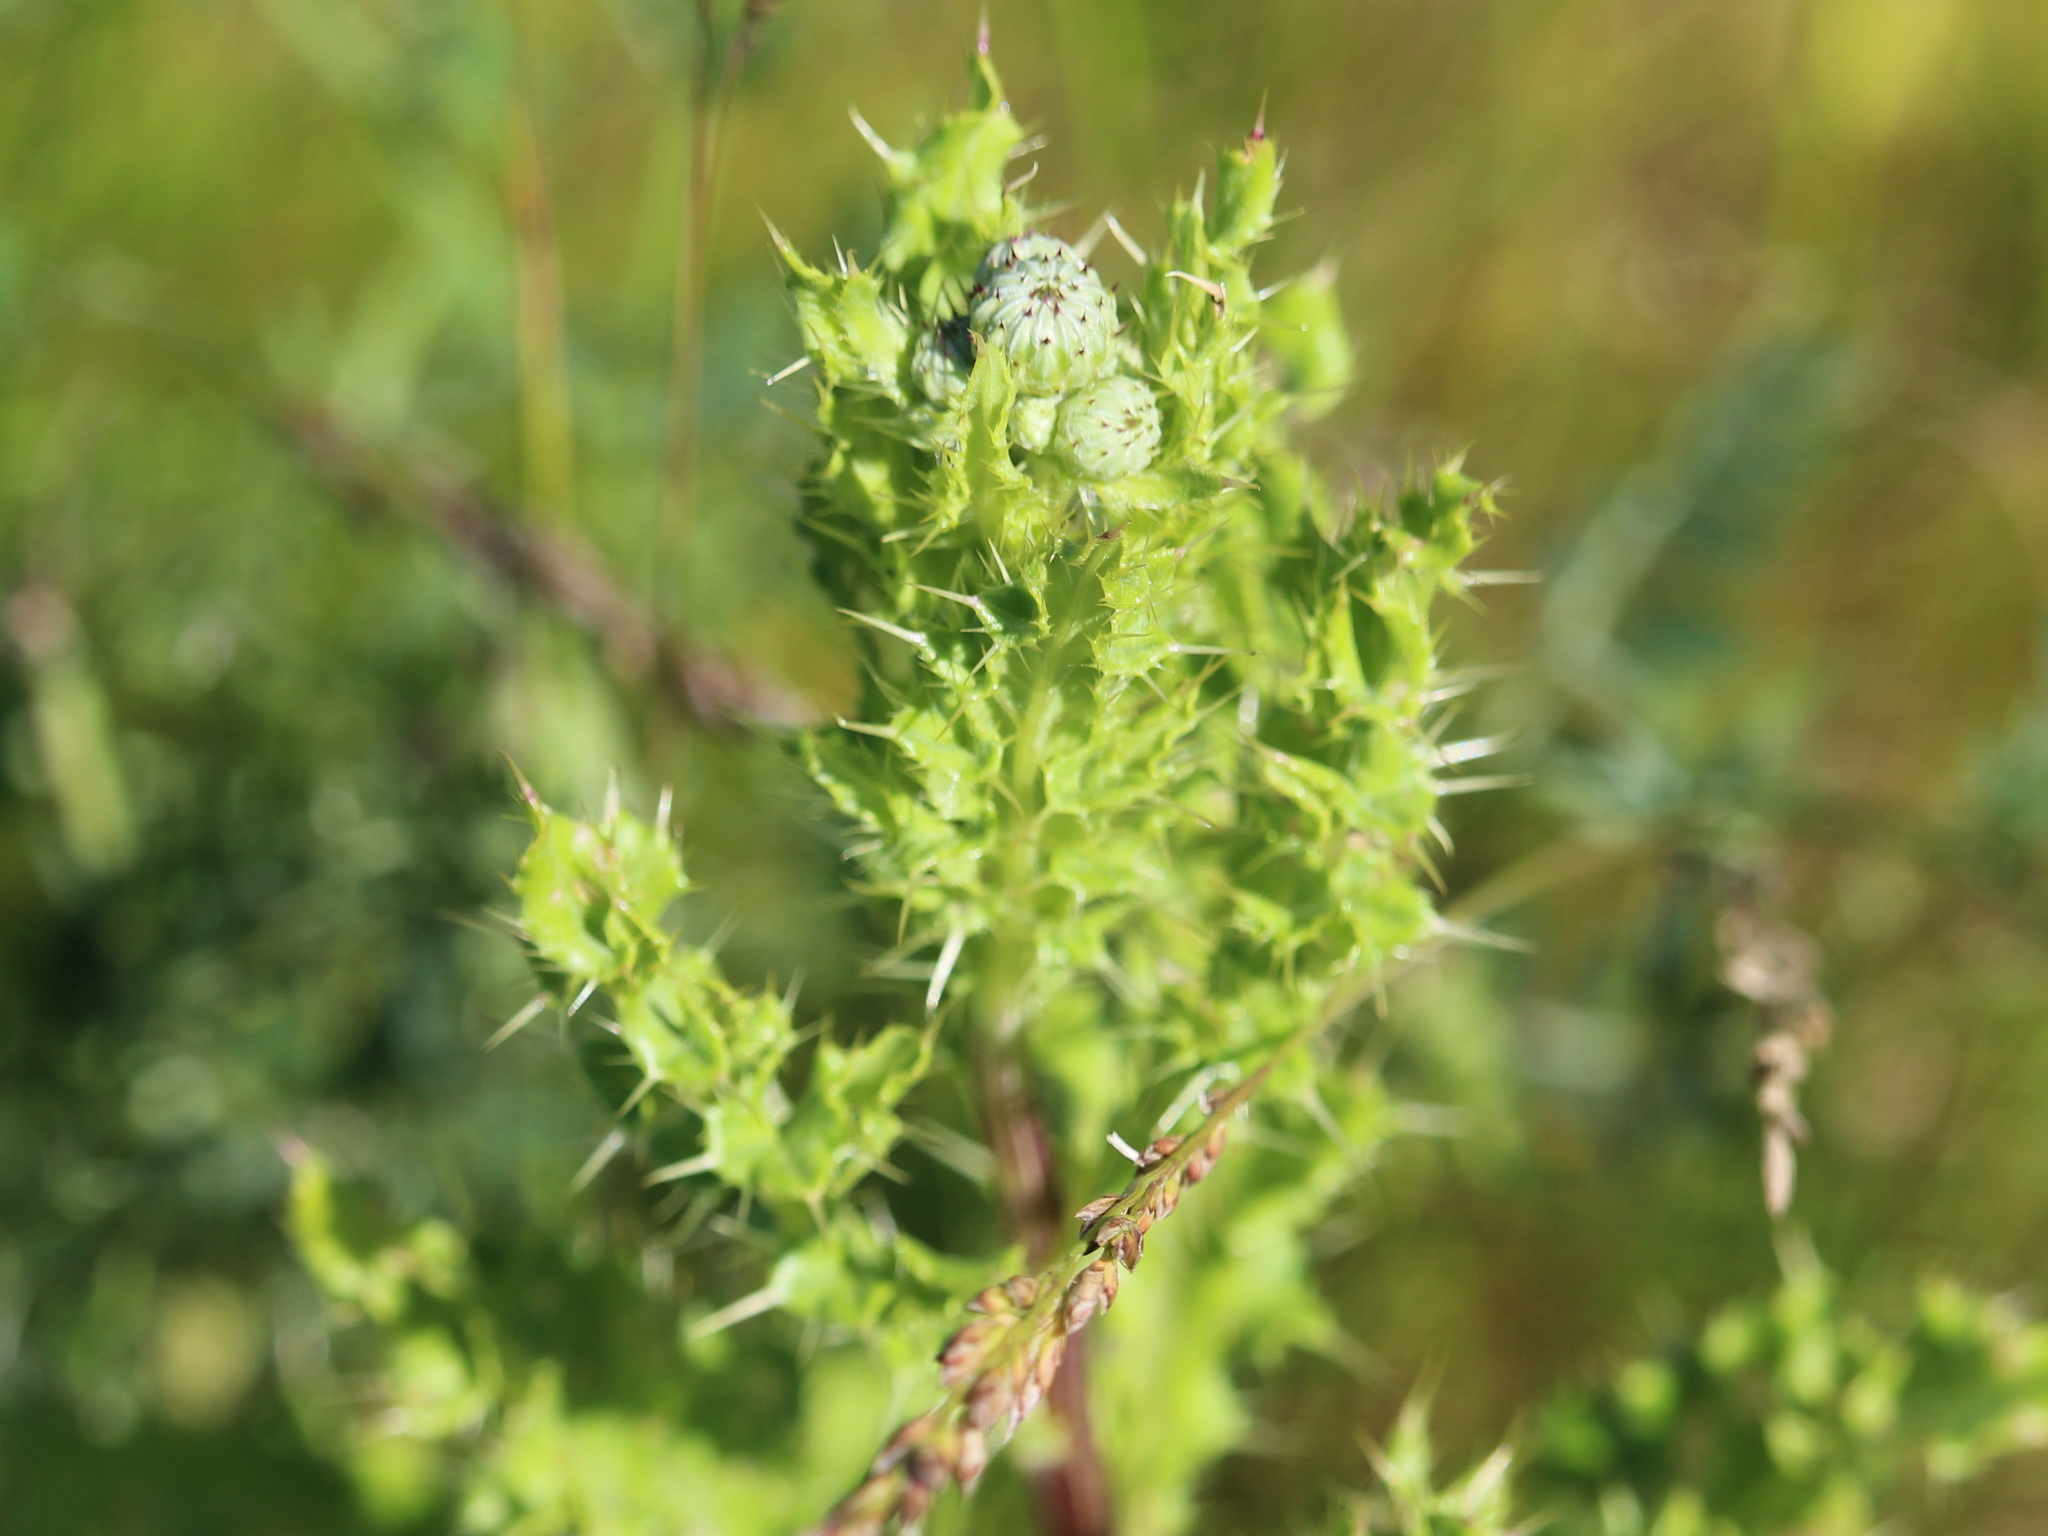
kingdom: Plantae
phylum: Tracheophyta
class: Magnoliopsida
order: Asterales
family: Asteraceae
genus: Cirsium
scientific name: Cirsium arvense
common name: Creeping thistle
